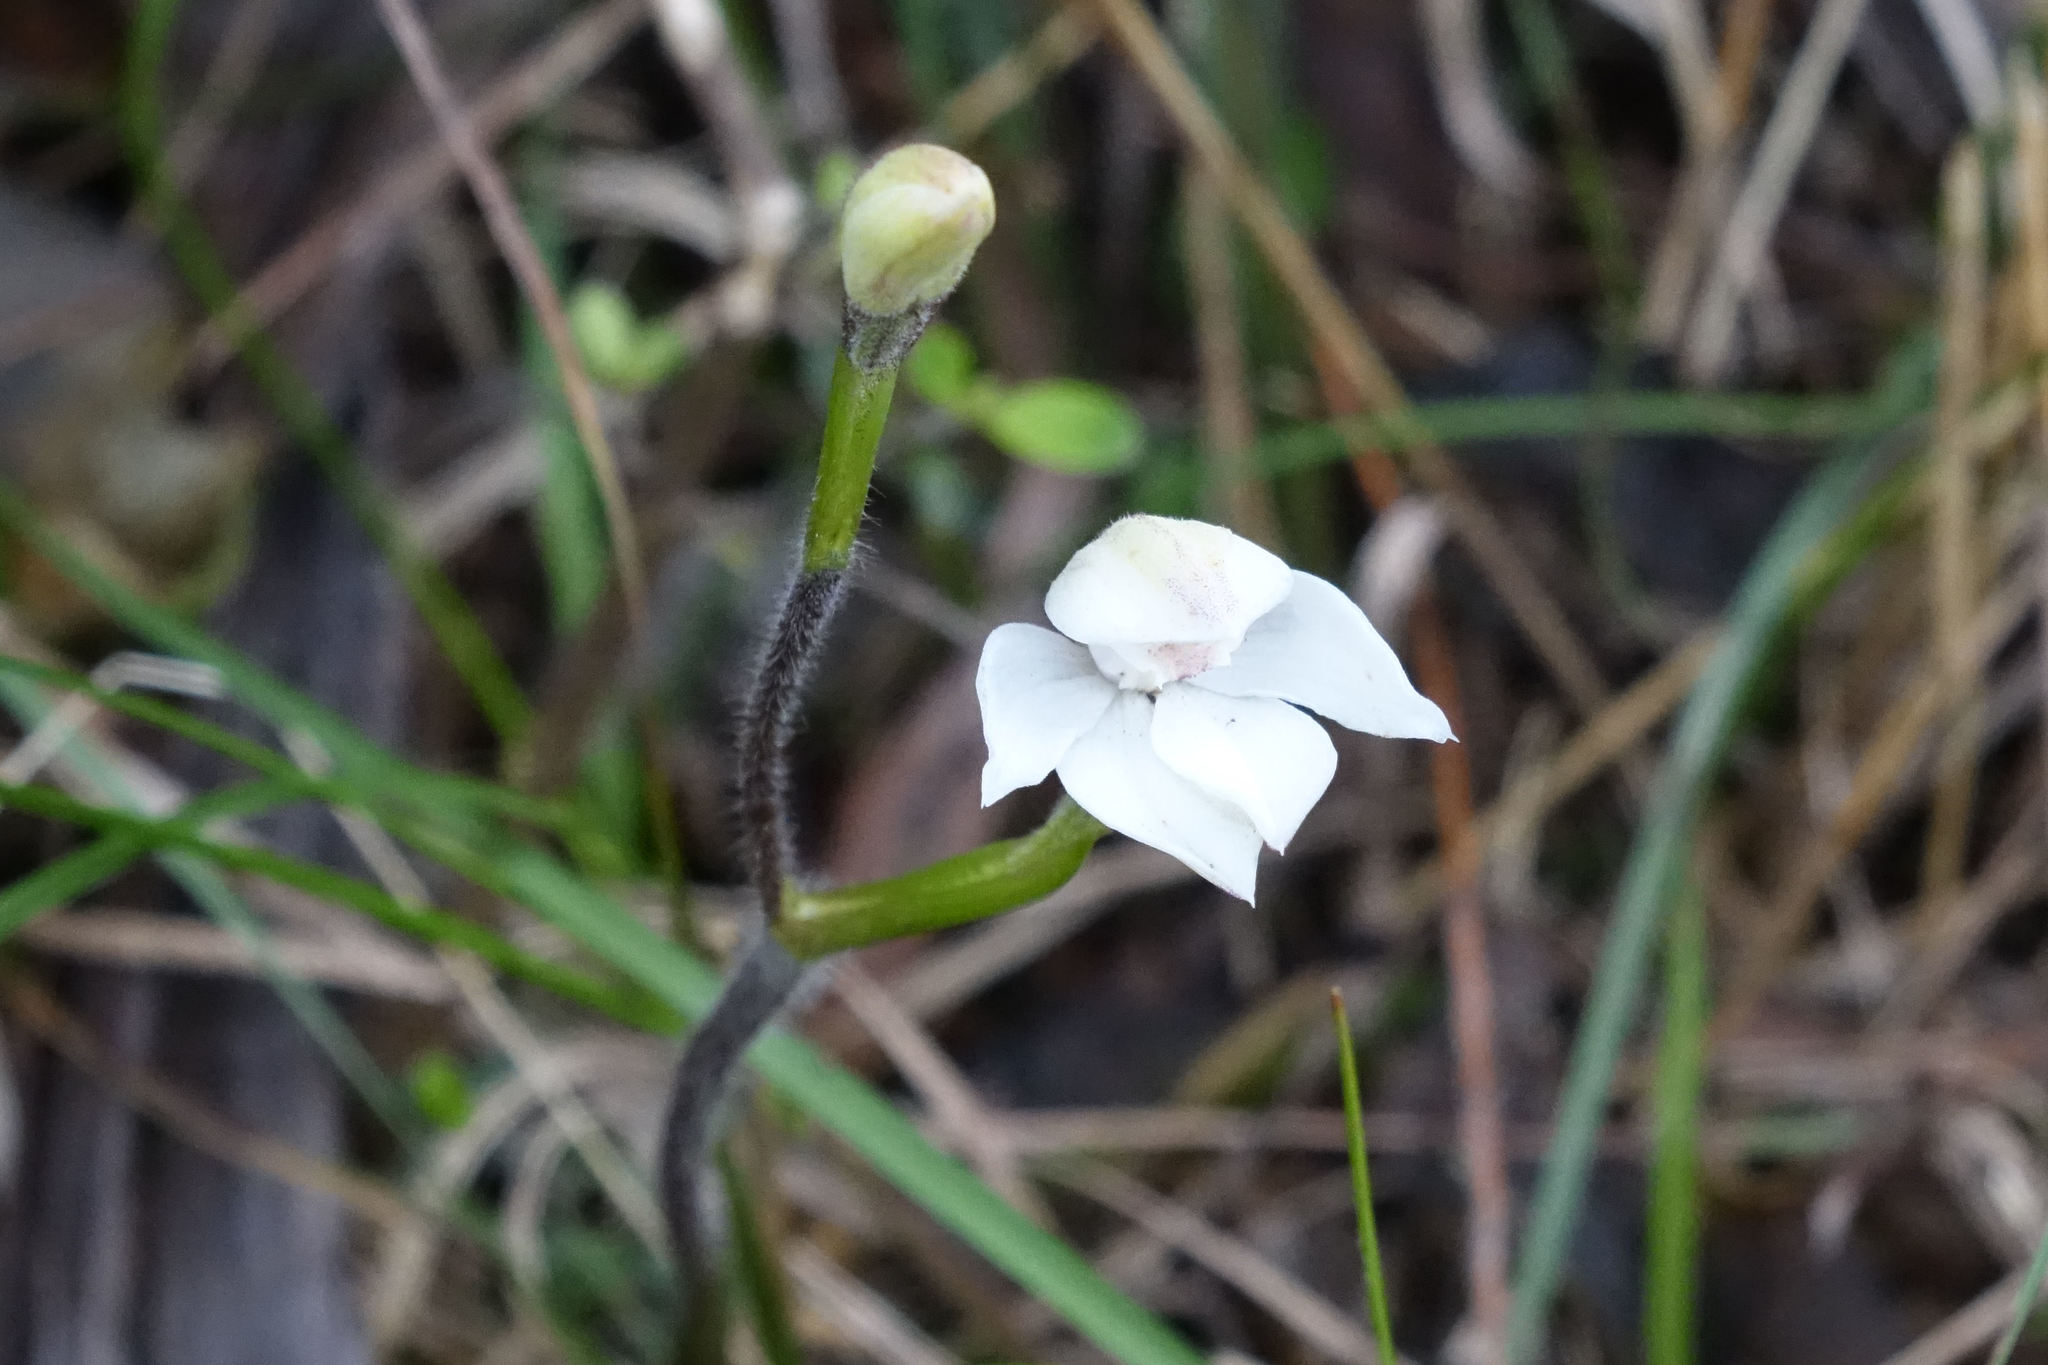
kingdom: Plantae
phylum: Tracheophyta
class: Liliopsida
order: Asparagales
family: Orchidaceae
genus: Caladenia
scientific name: Caladenia lyallii
